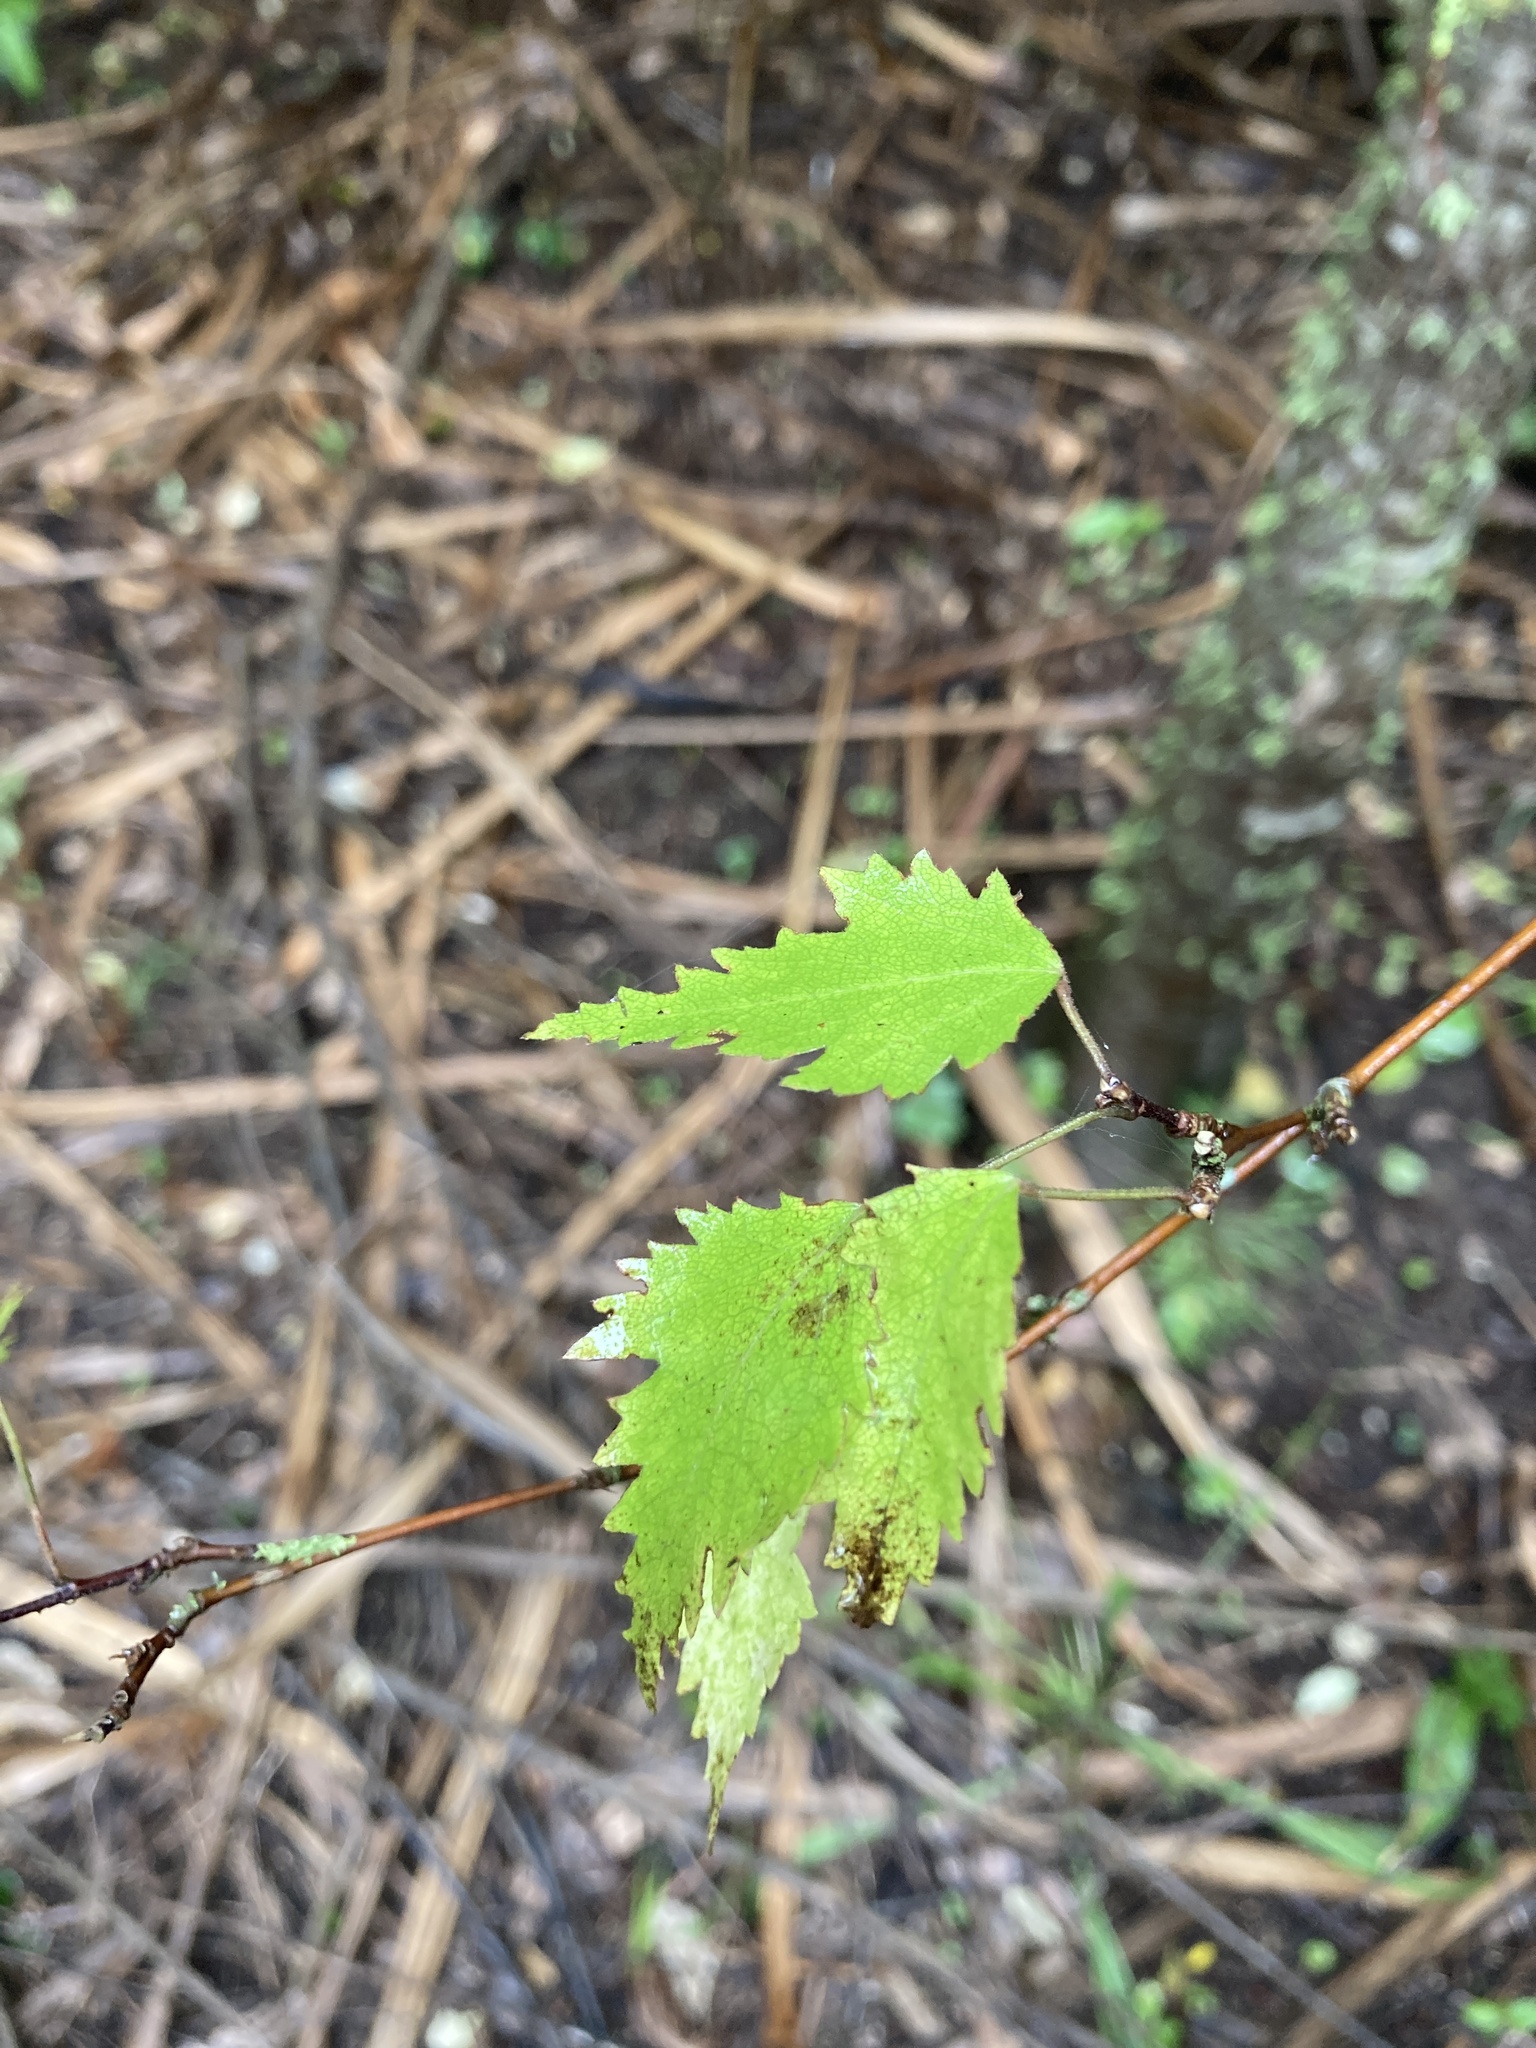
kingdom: Plantae
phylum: Tracheophyta
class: Magnoliopsida
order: Malvales
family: Malvaceae
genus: Plagianthus
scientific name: Plagianthus regius
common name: Manatu
